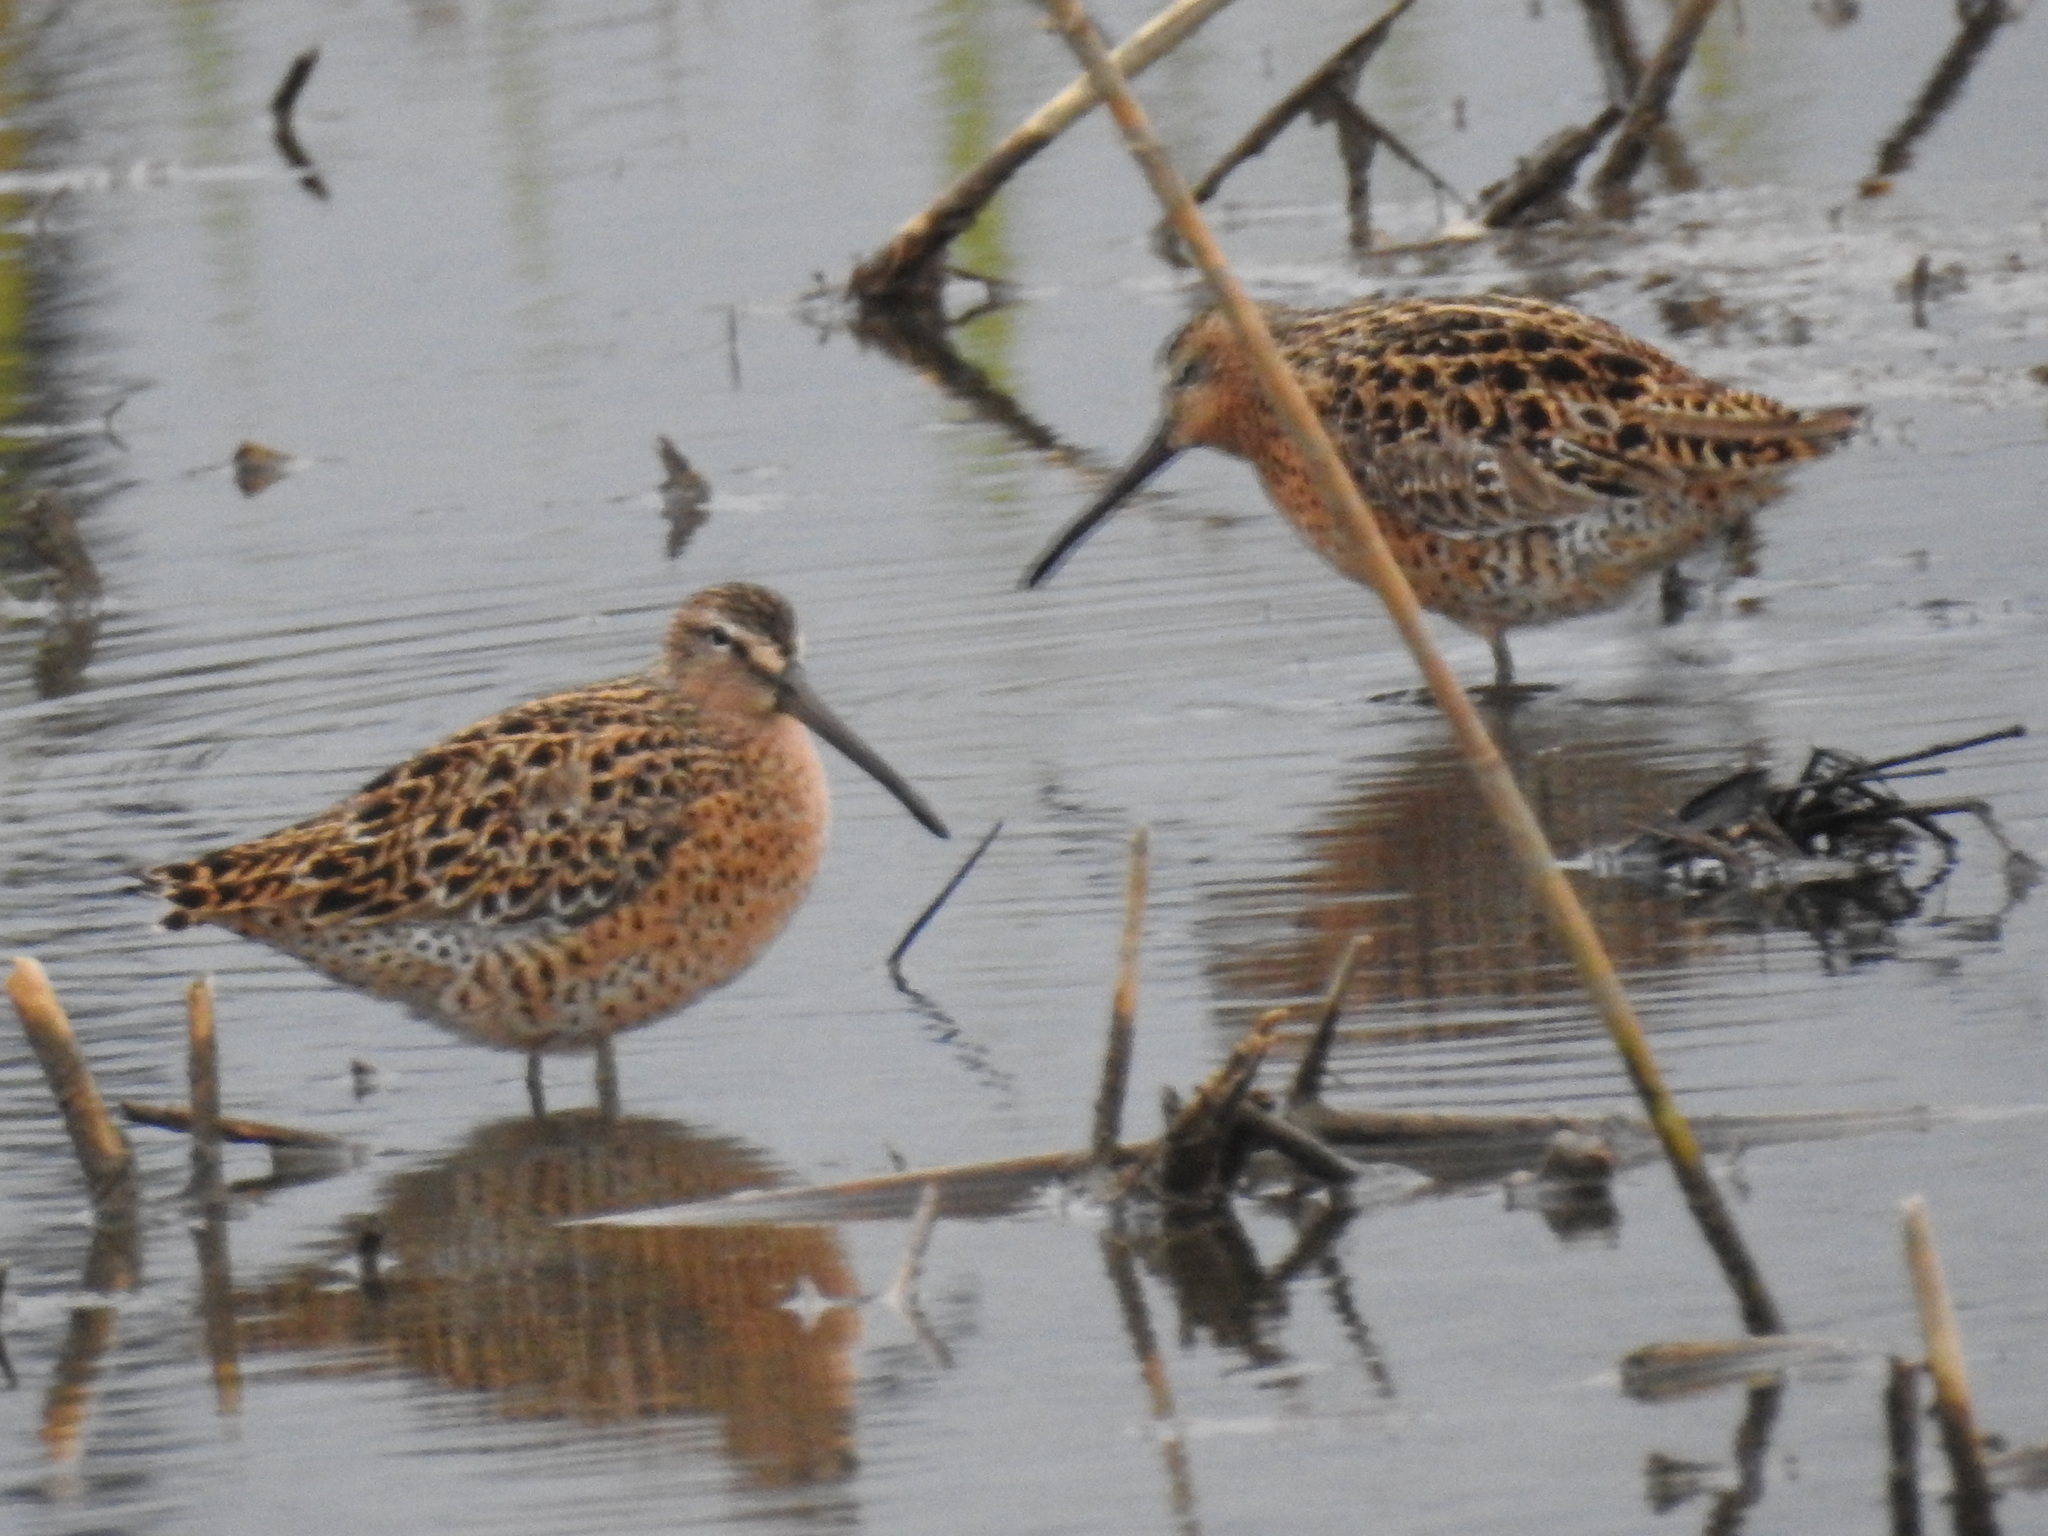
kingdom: Animalia
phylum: Chordata
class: Aves
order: Charadriiformes
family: Scolopacidae
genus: Limnodromus
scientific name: Limnodromus griseus
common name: Short-billed dowitcher
